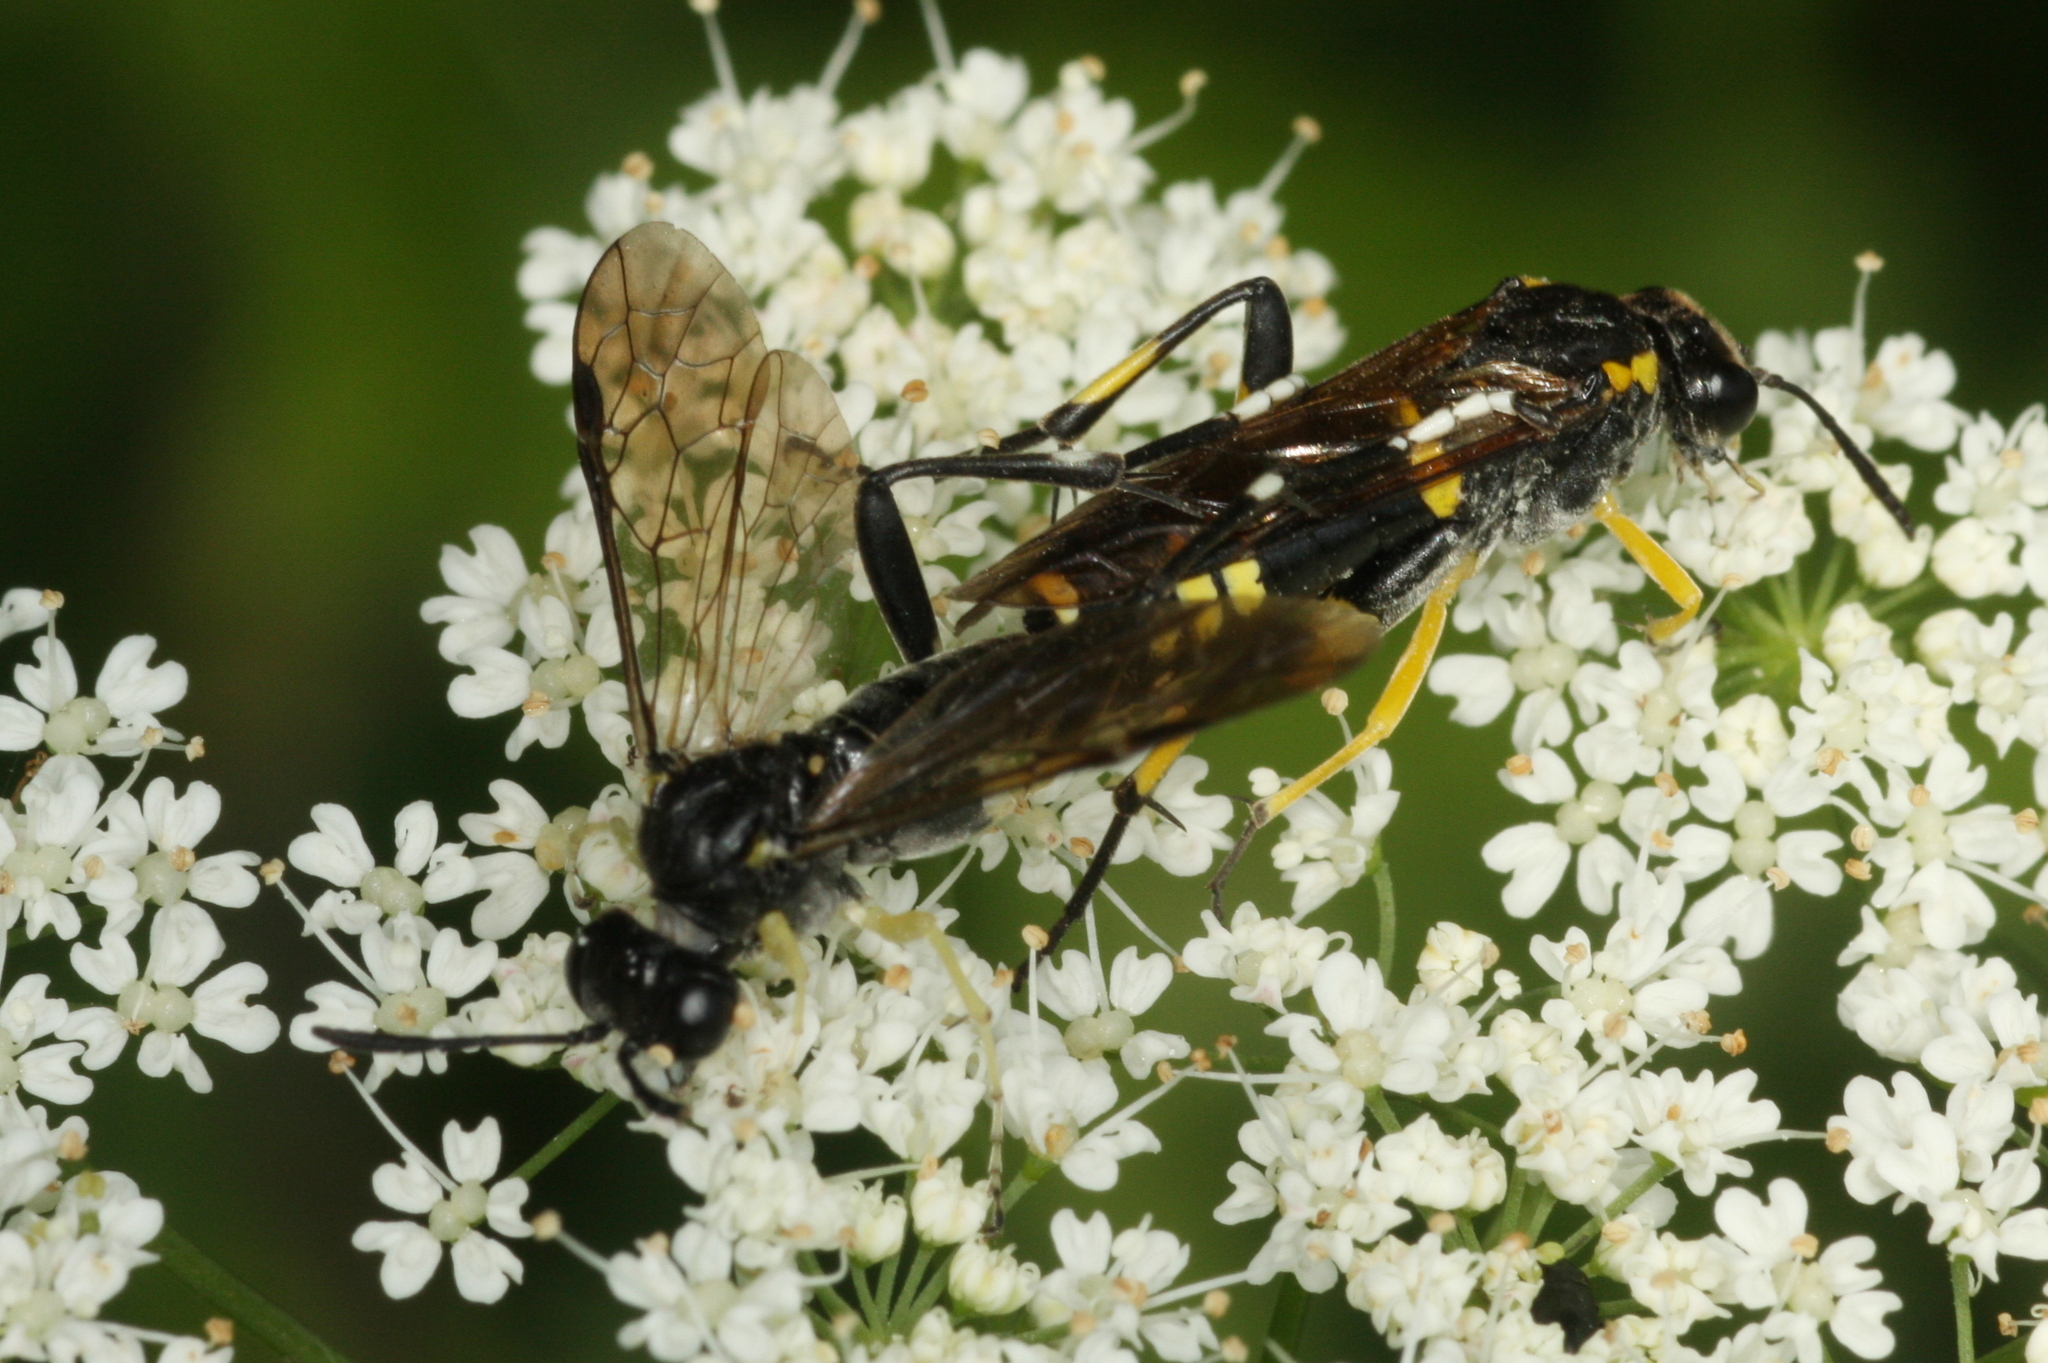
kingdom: Animalia
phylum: Arthropoda
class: Insecta
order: Hymenoptera
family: Tenthredinidae
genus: Macrophya
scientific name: Macrophya montana
